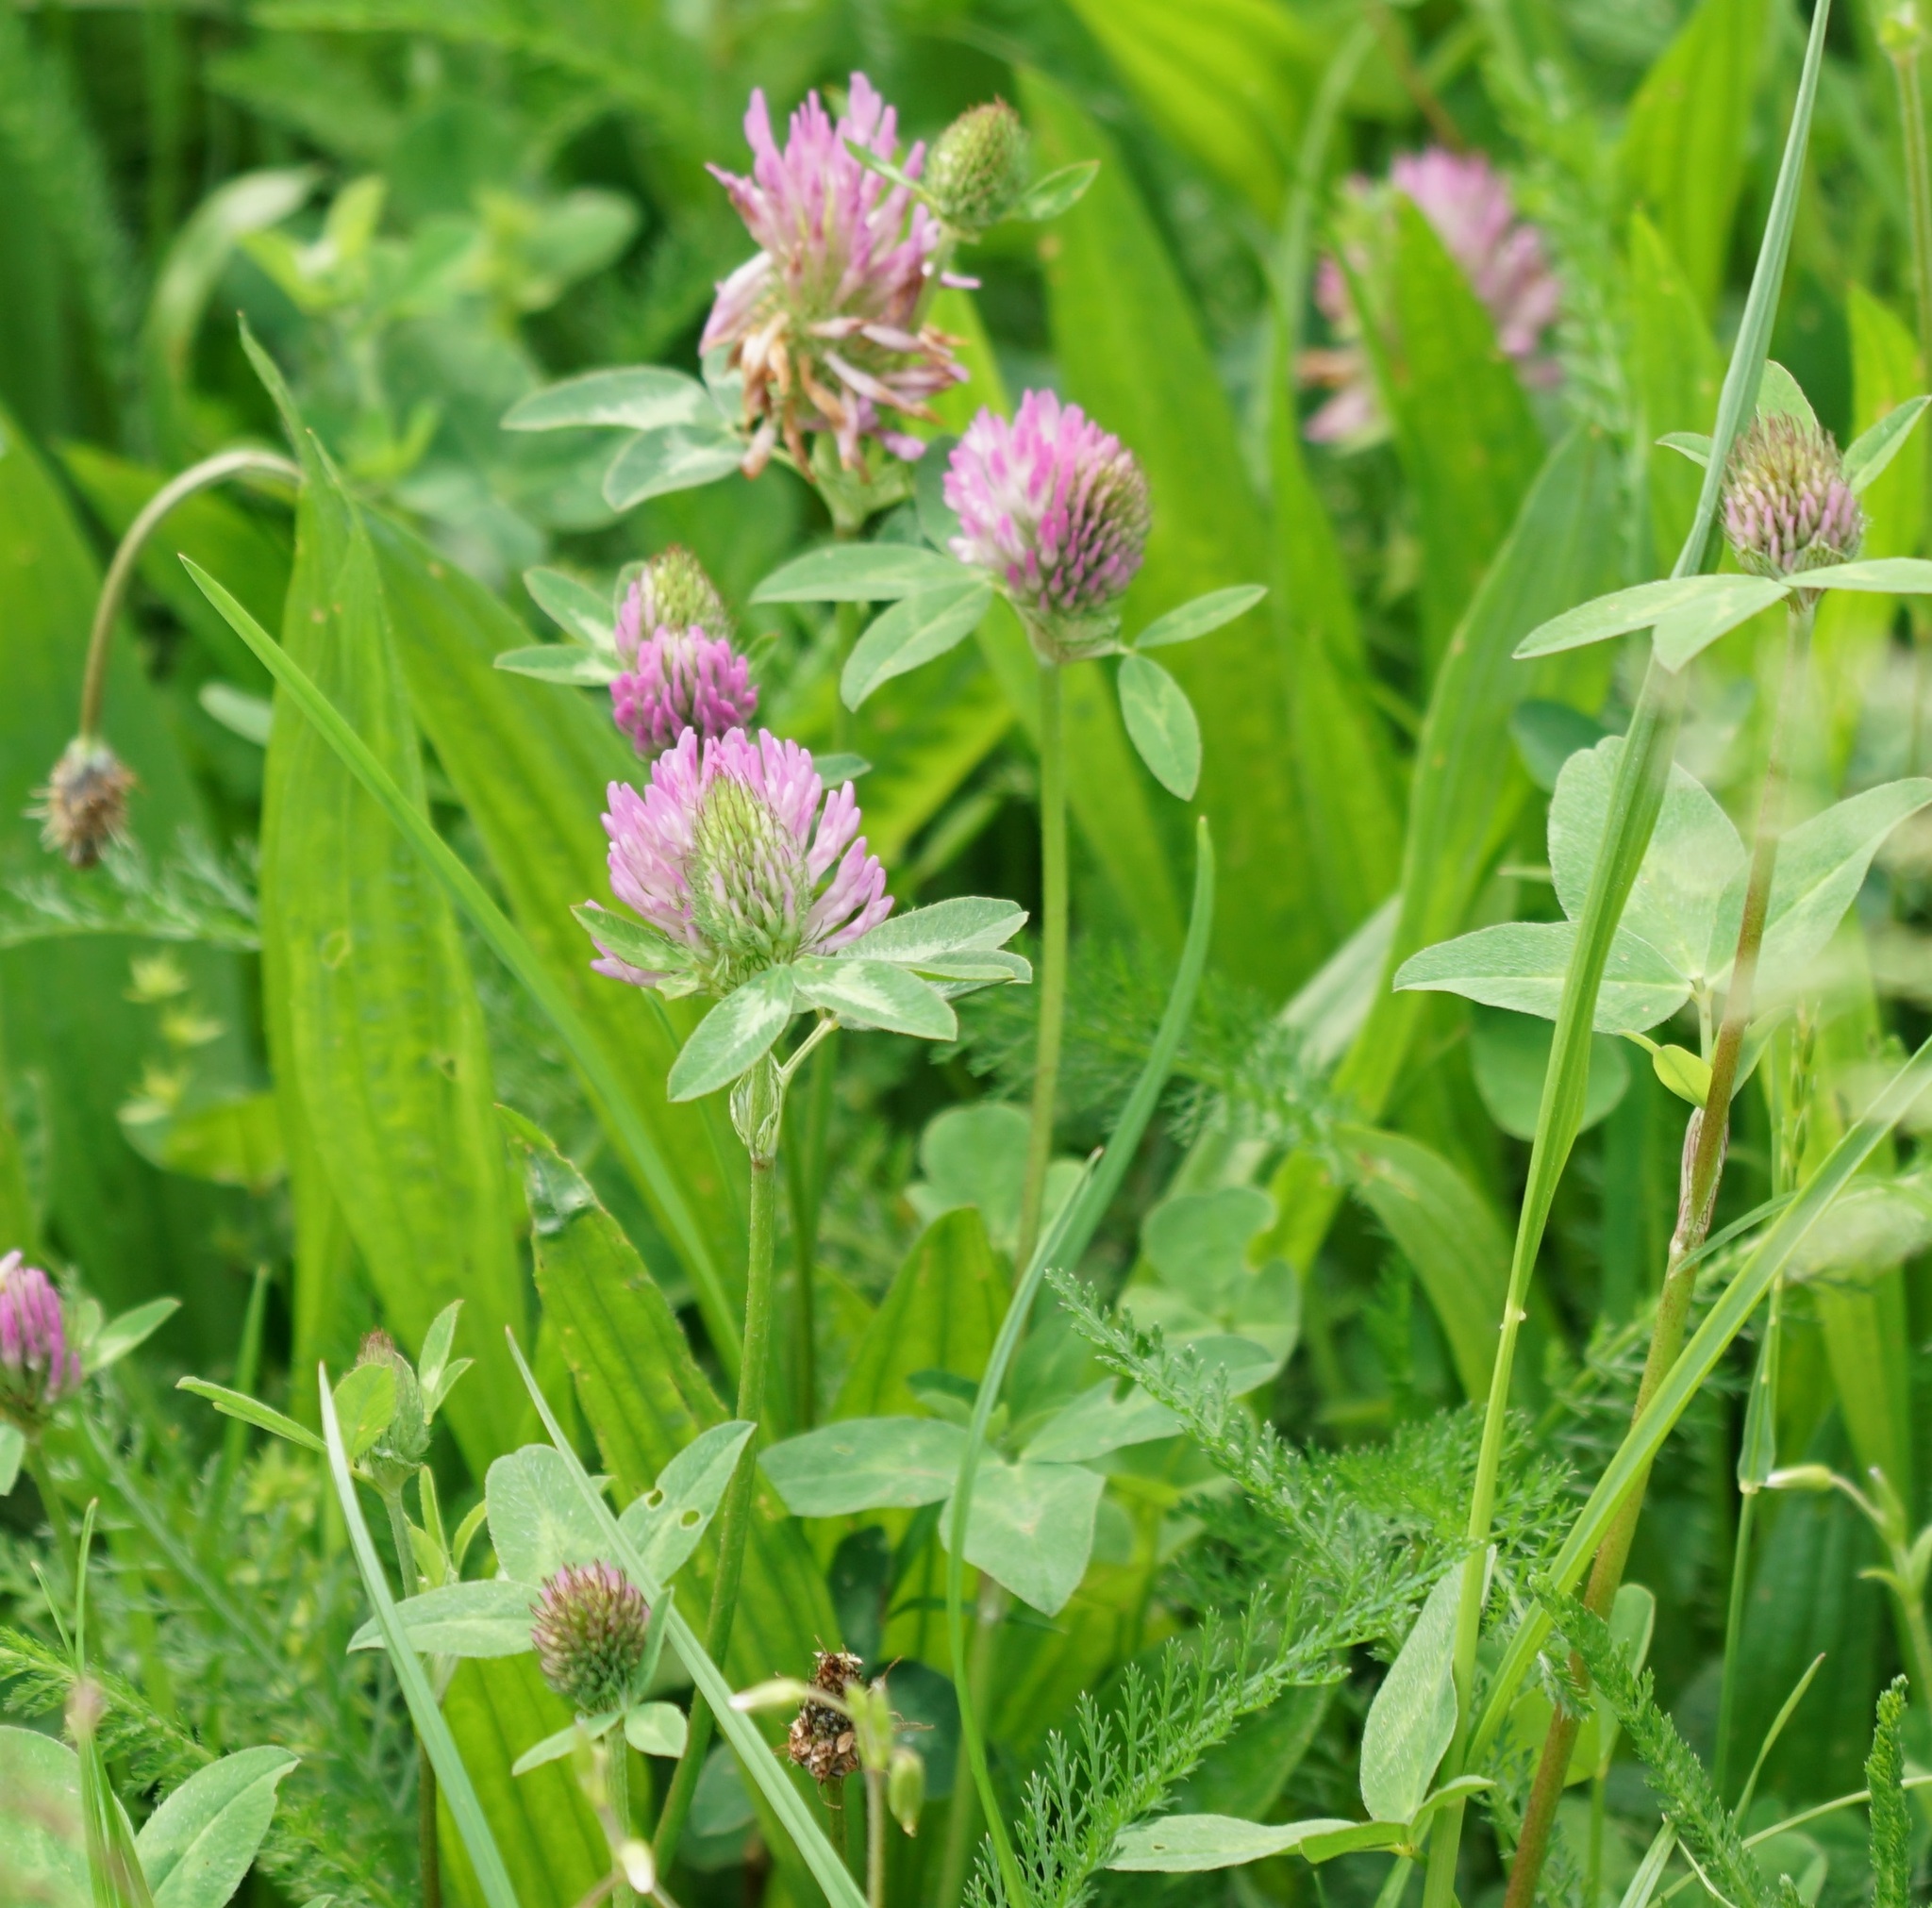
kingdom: Plantae
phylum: Tracheophyta
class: Magnoliopsida
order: Fabales
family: Fabaceae
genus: Trifolium
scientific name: Trifolium pratense
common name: Red clover
